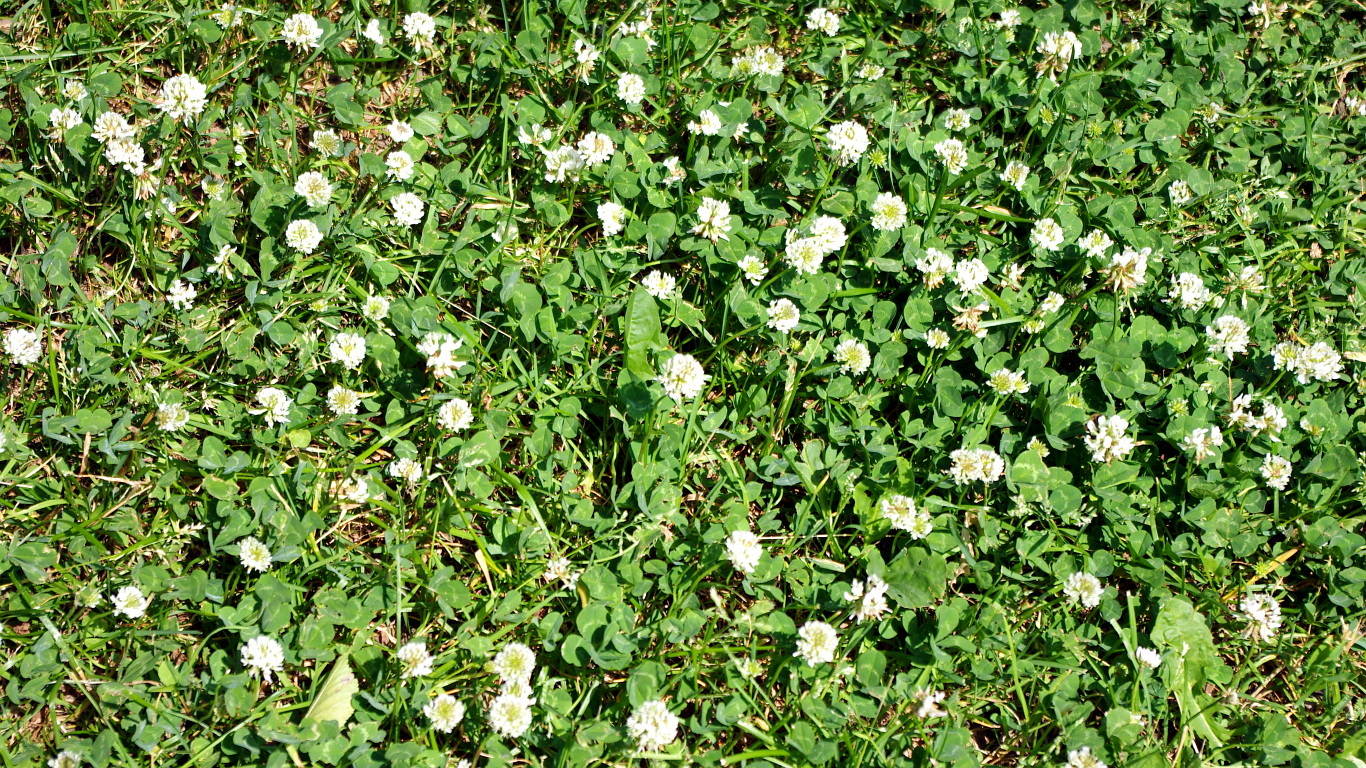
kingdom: Plantae
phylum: Tracheophyta
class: Magnoliopsida
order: Fabales
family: Fabaceae
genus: Trifolium
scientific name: Trifolium repens
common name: White clover
